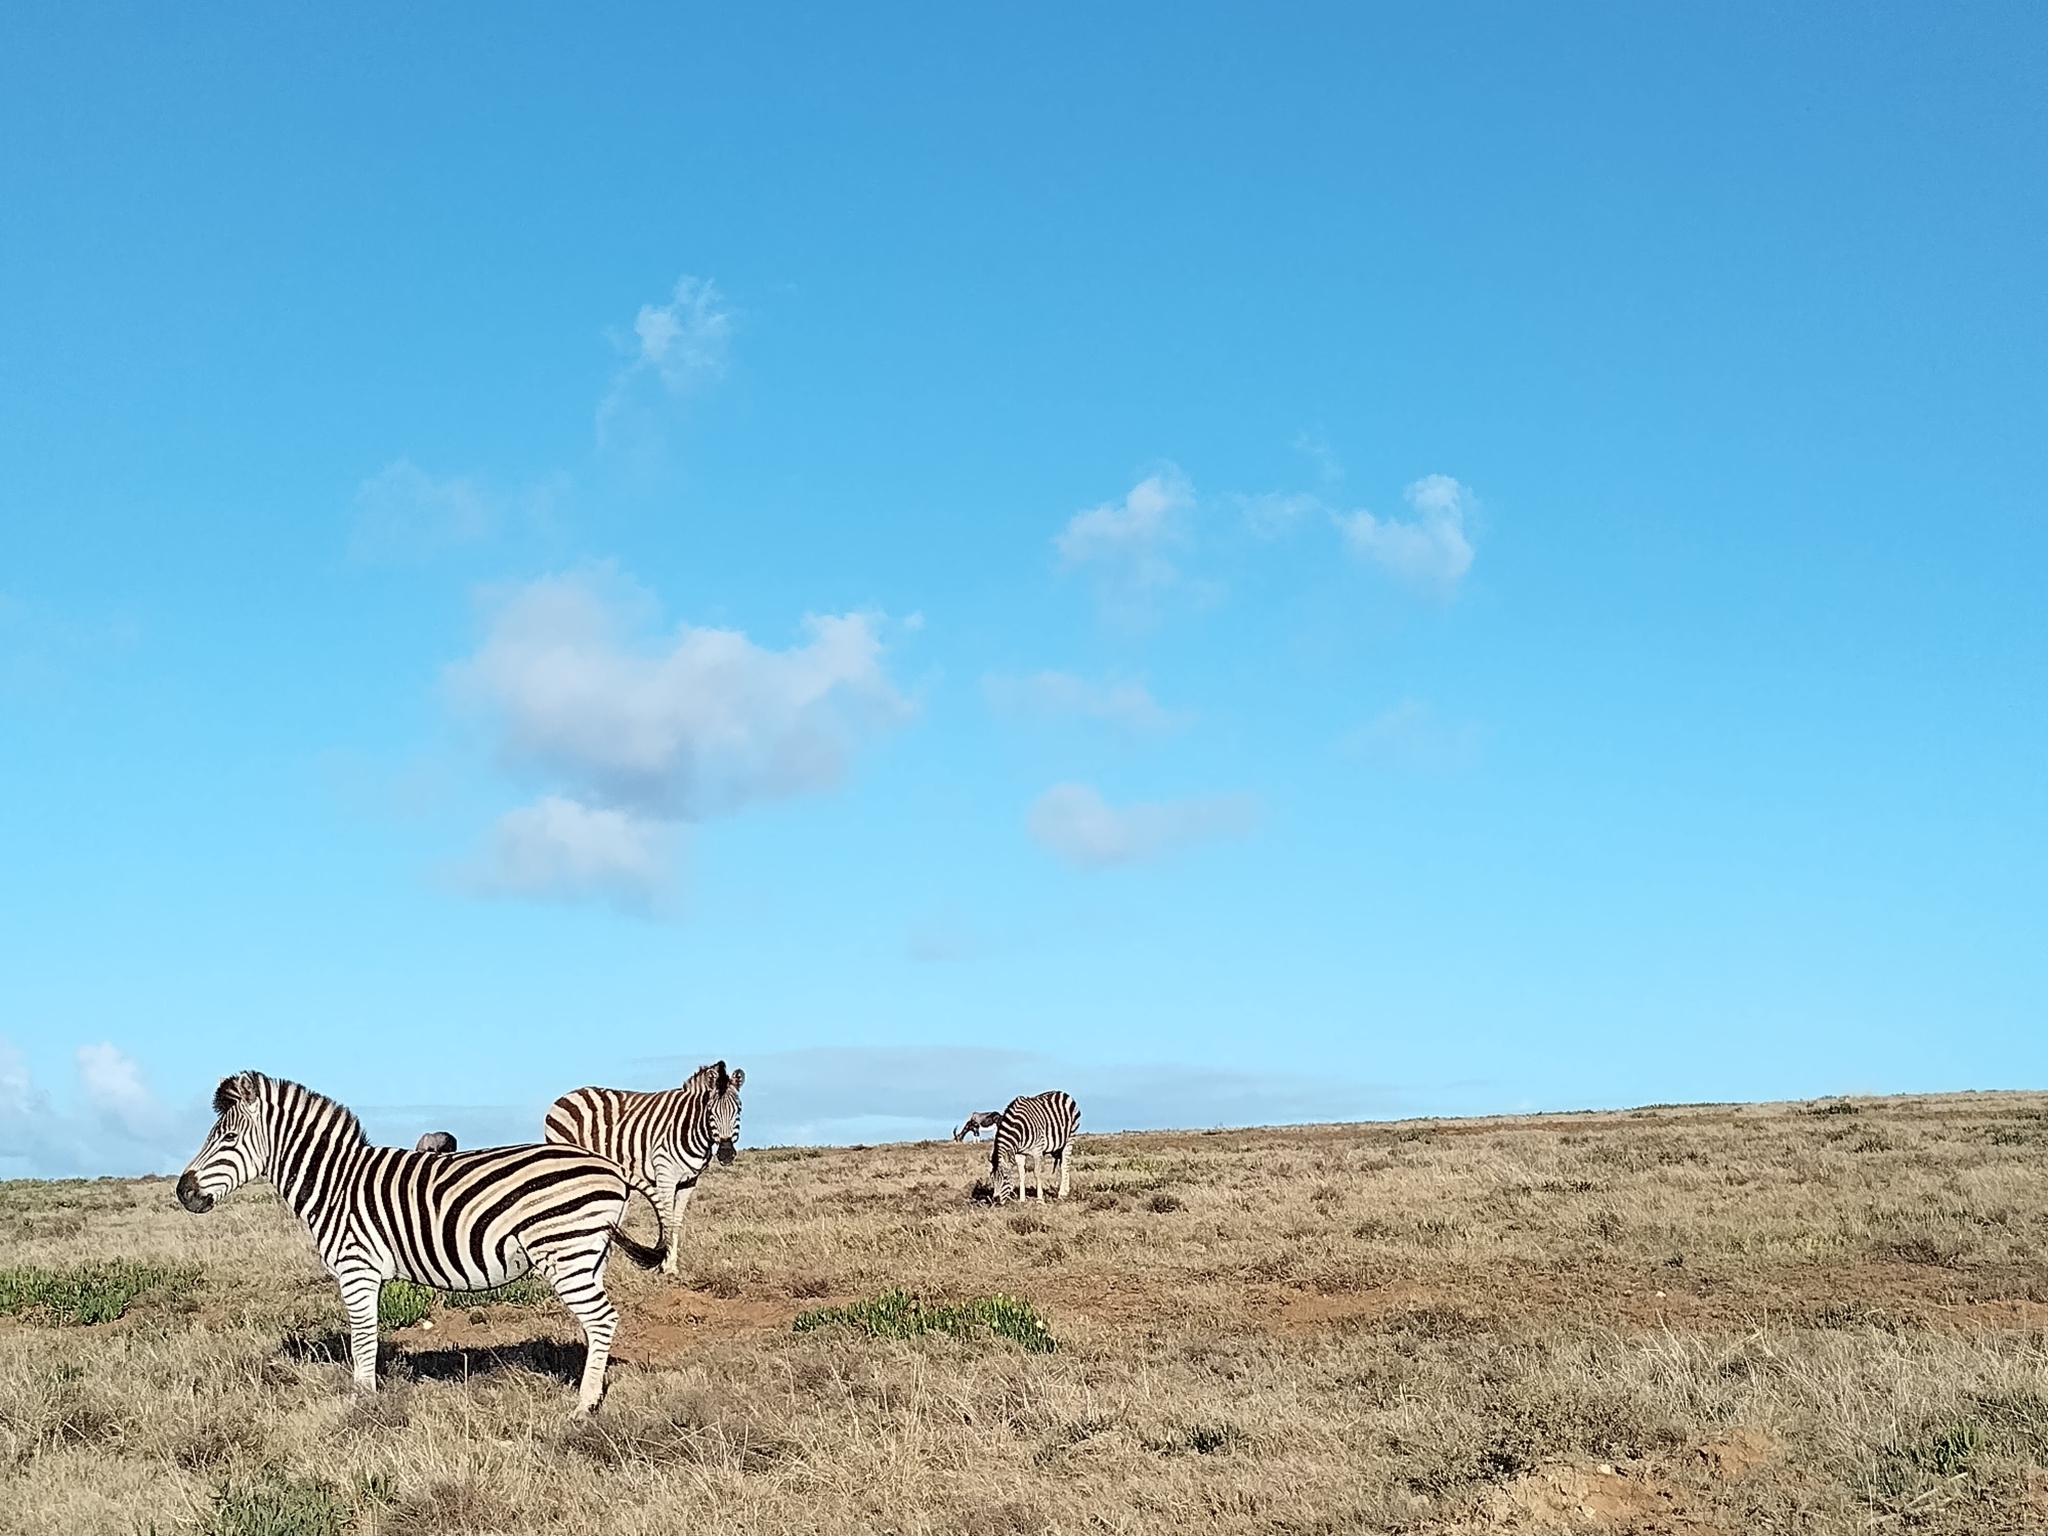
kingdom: Animalia
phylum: Chordata
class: Mammalia
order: Perissodactyla
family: Equidae
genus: Equus
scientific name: Equus quagga
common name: Plains zebra
